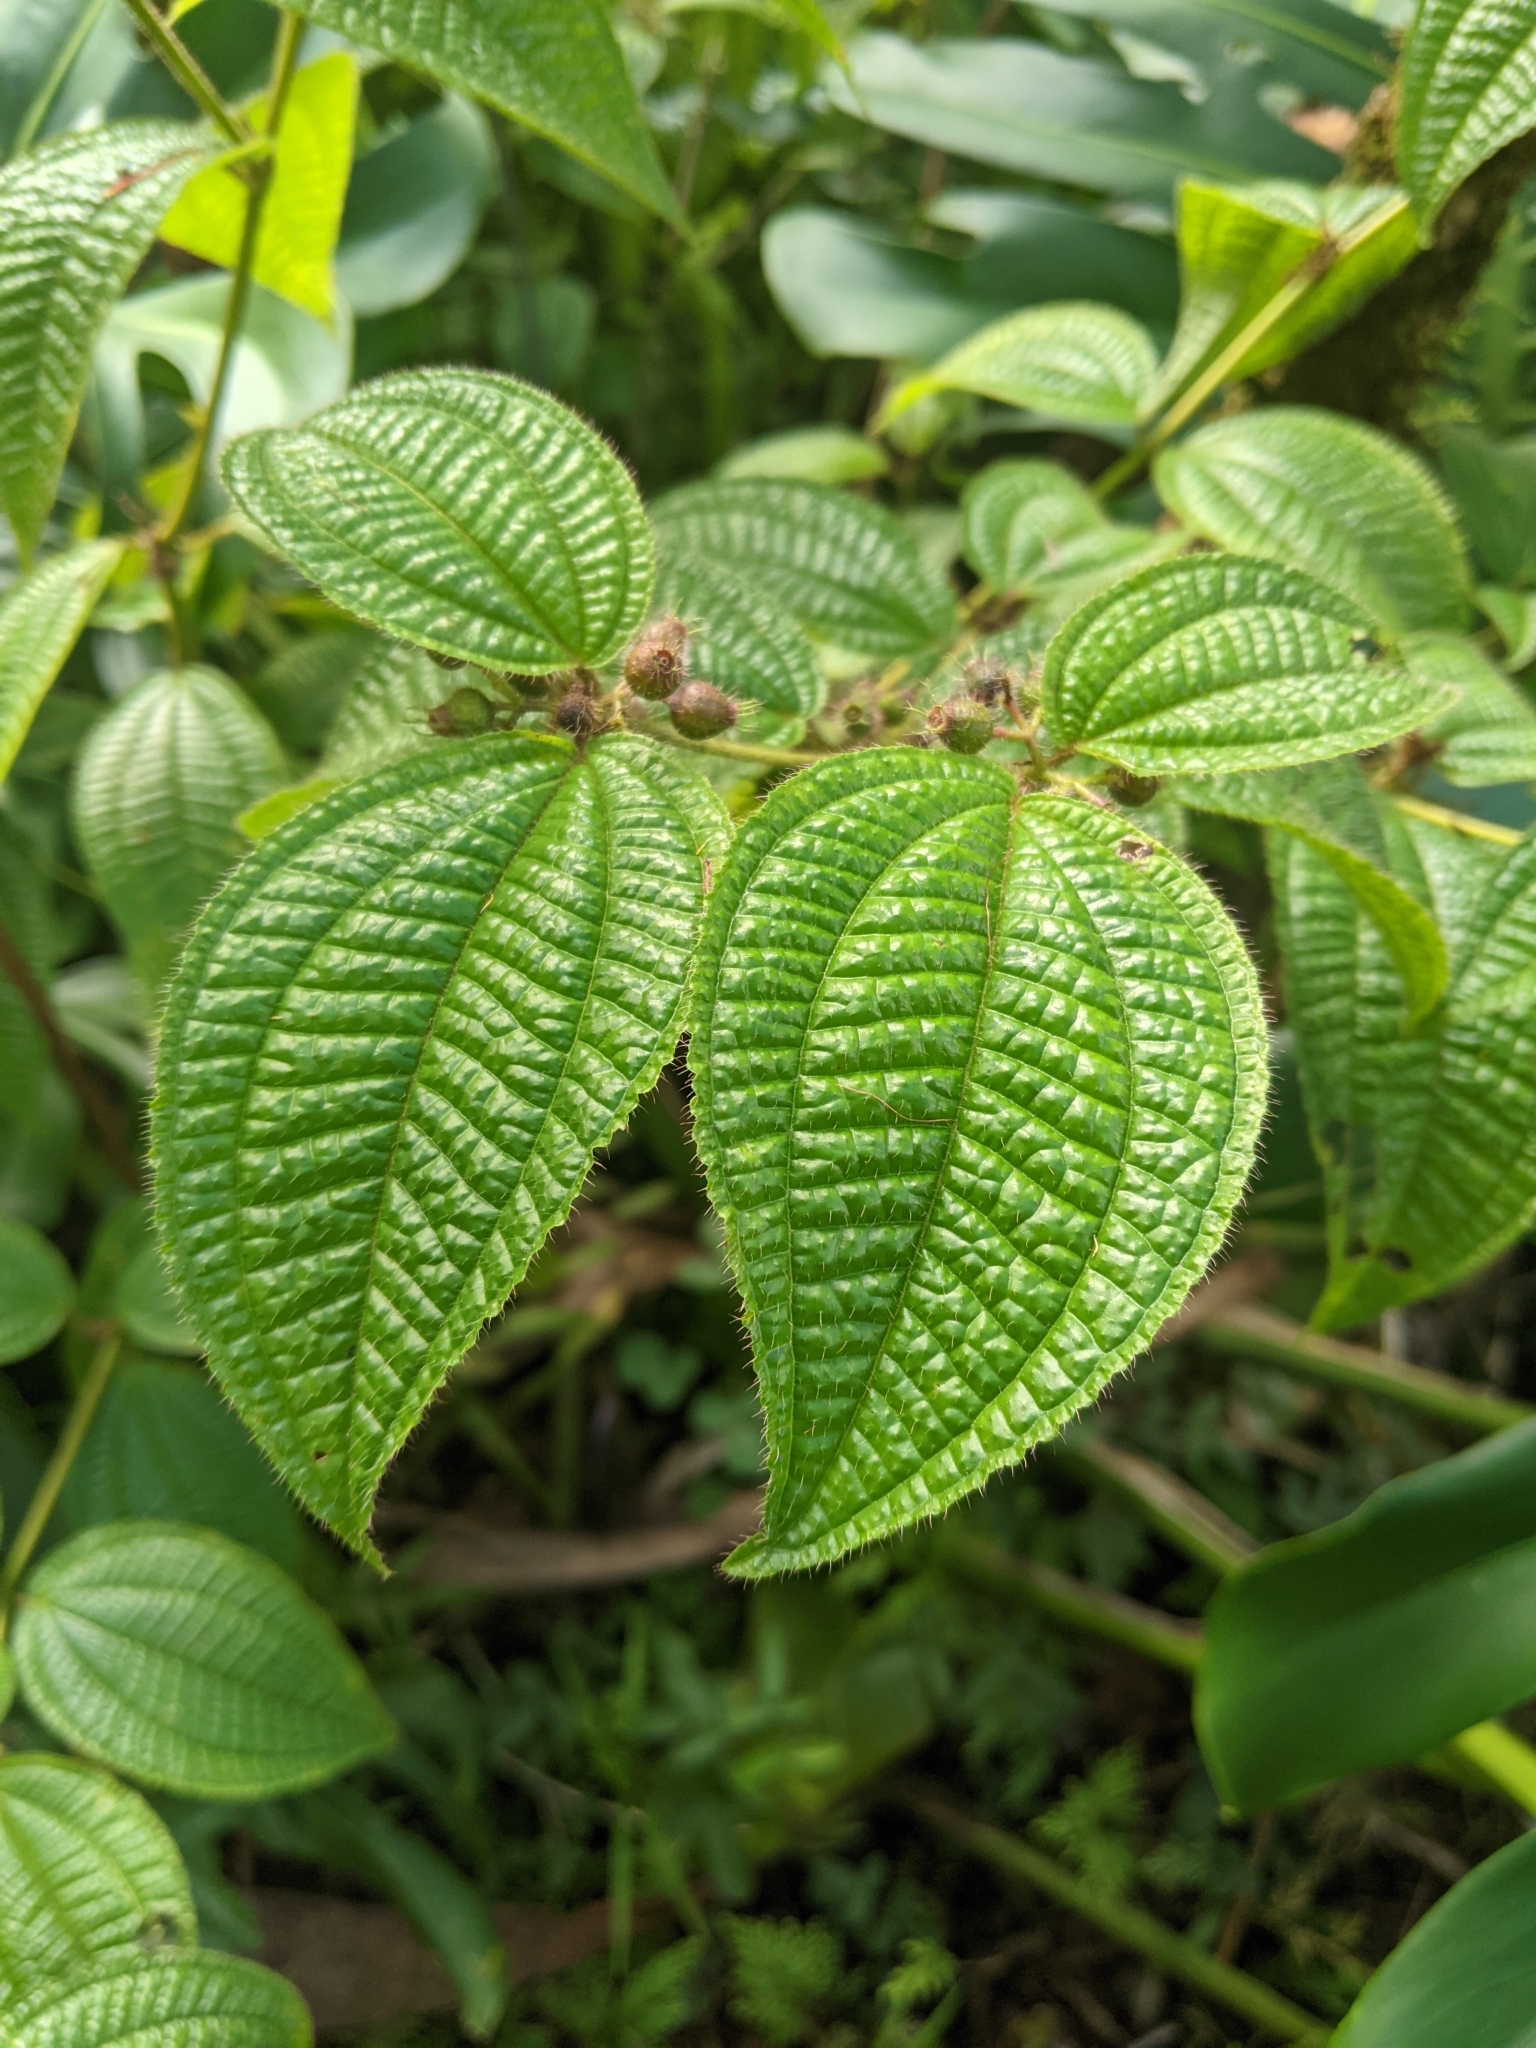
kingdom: Plantae
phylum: Tracheophyta
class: Magnoliopsida
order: Myrtales
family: Melastomataceae
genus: Miconia
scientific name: Miconia crenata
